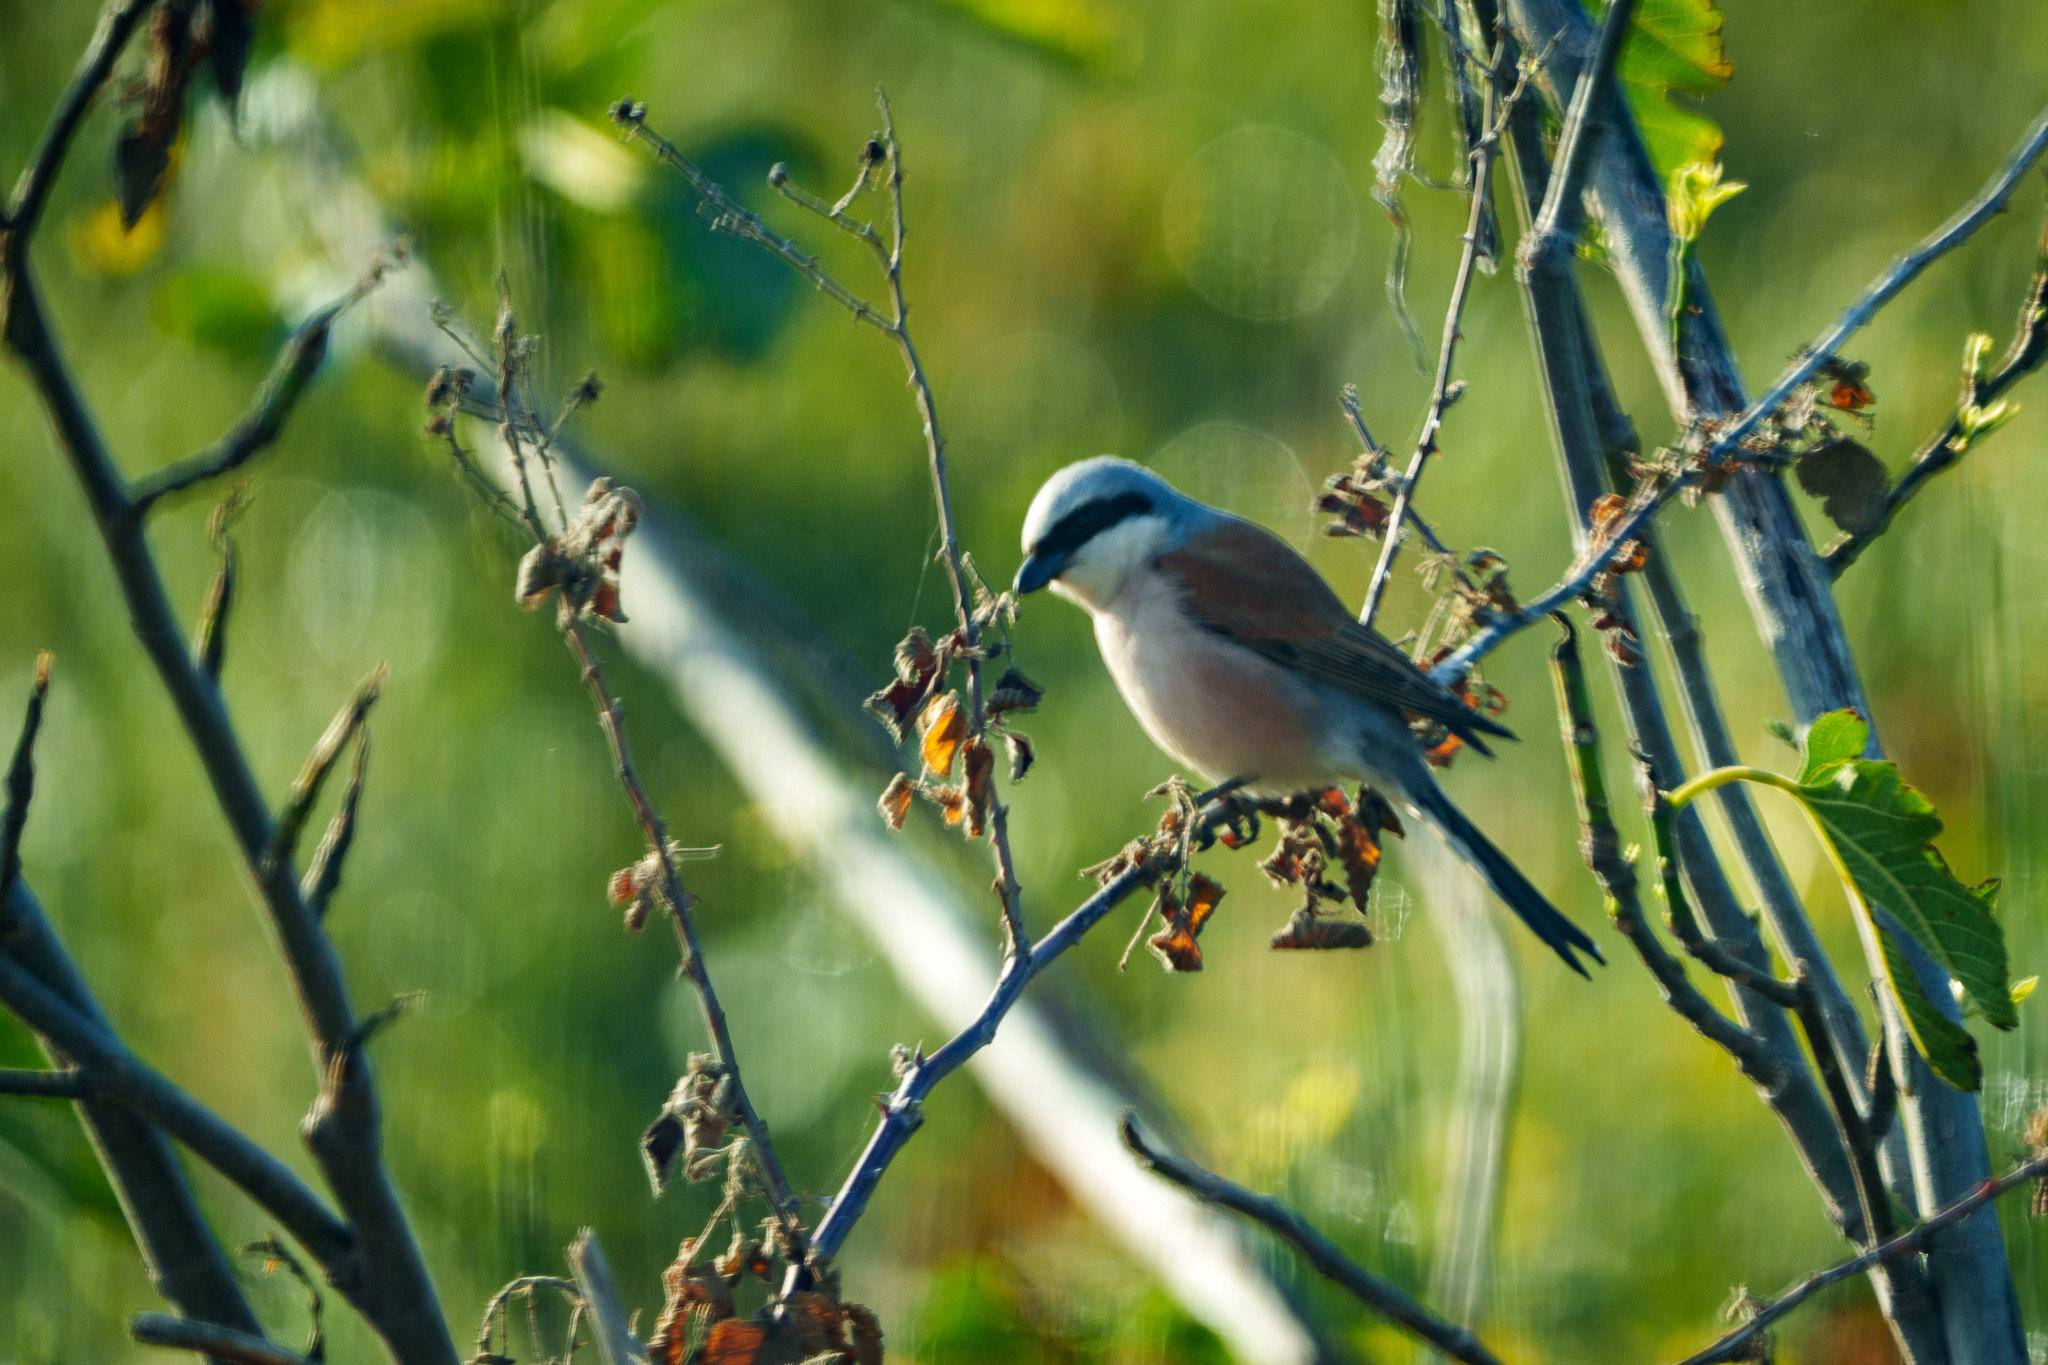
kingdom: Animalia
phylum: Chordata
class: Aves
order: Passeriformes
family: Laniidae
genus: Lanius
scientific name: Lanius collurio
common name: Red-backed shrike
